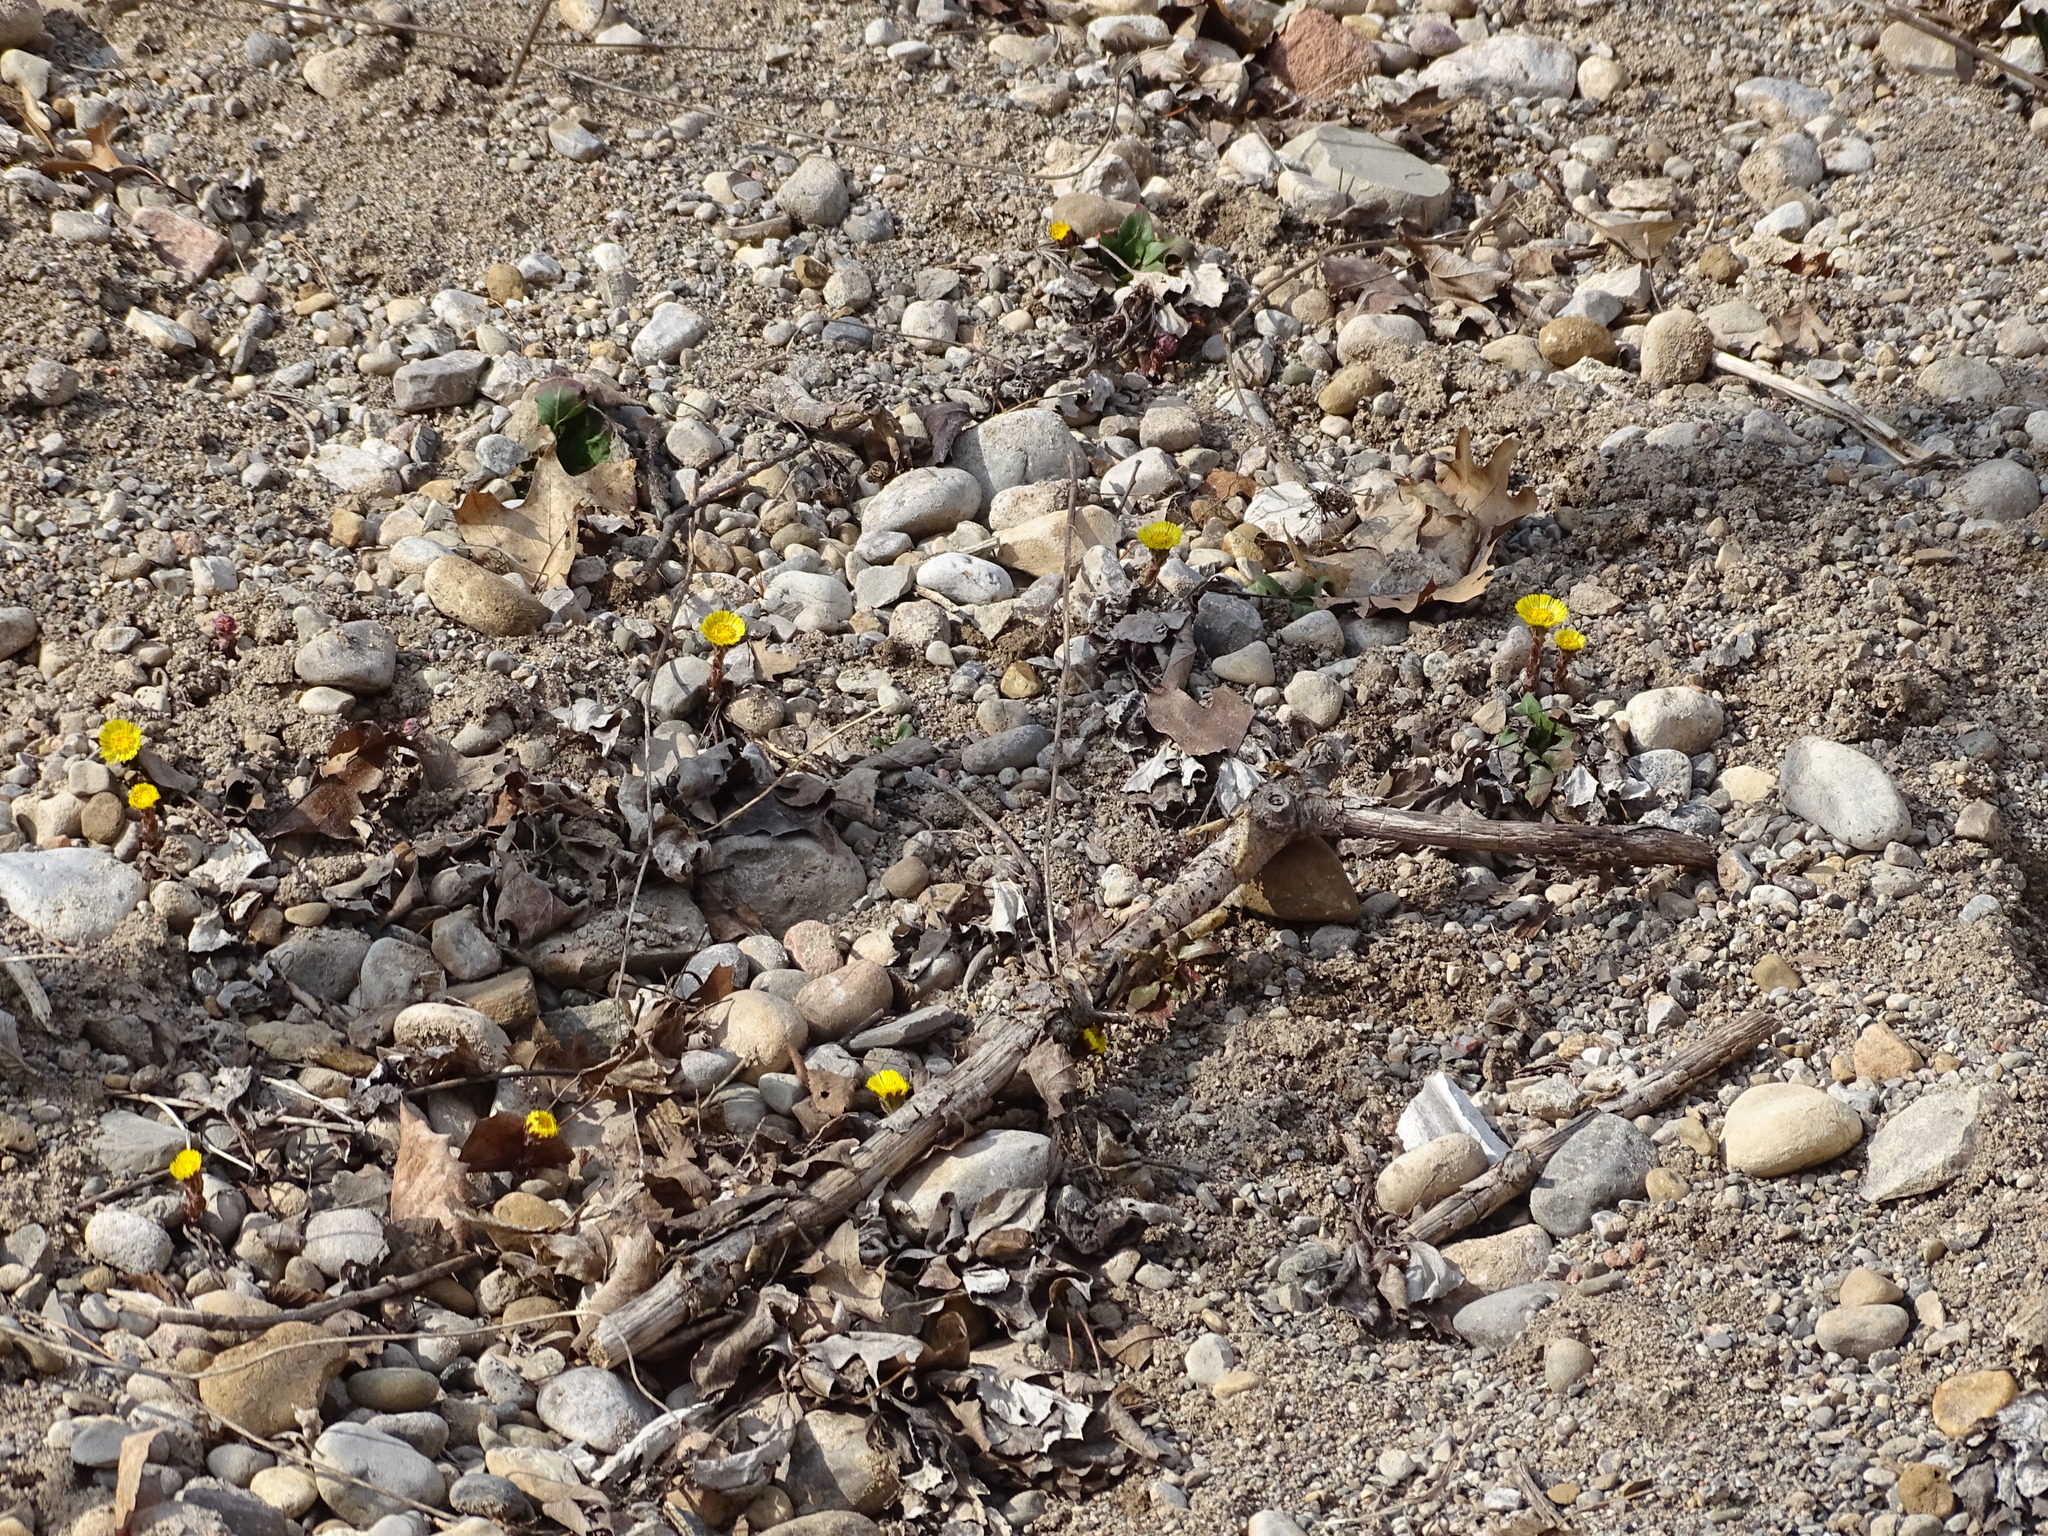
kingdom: Plantae
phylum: Tracheophyta
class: Magnoliopsida
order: Asterales
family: Asteraceae
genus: Tussilago
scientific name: Tussilago farfara
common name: Coltsfoot
